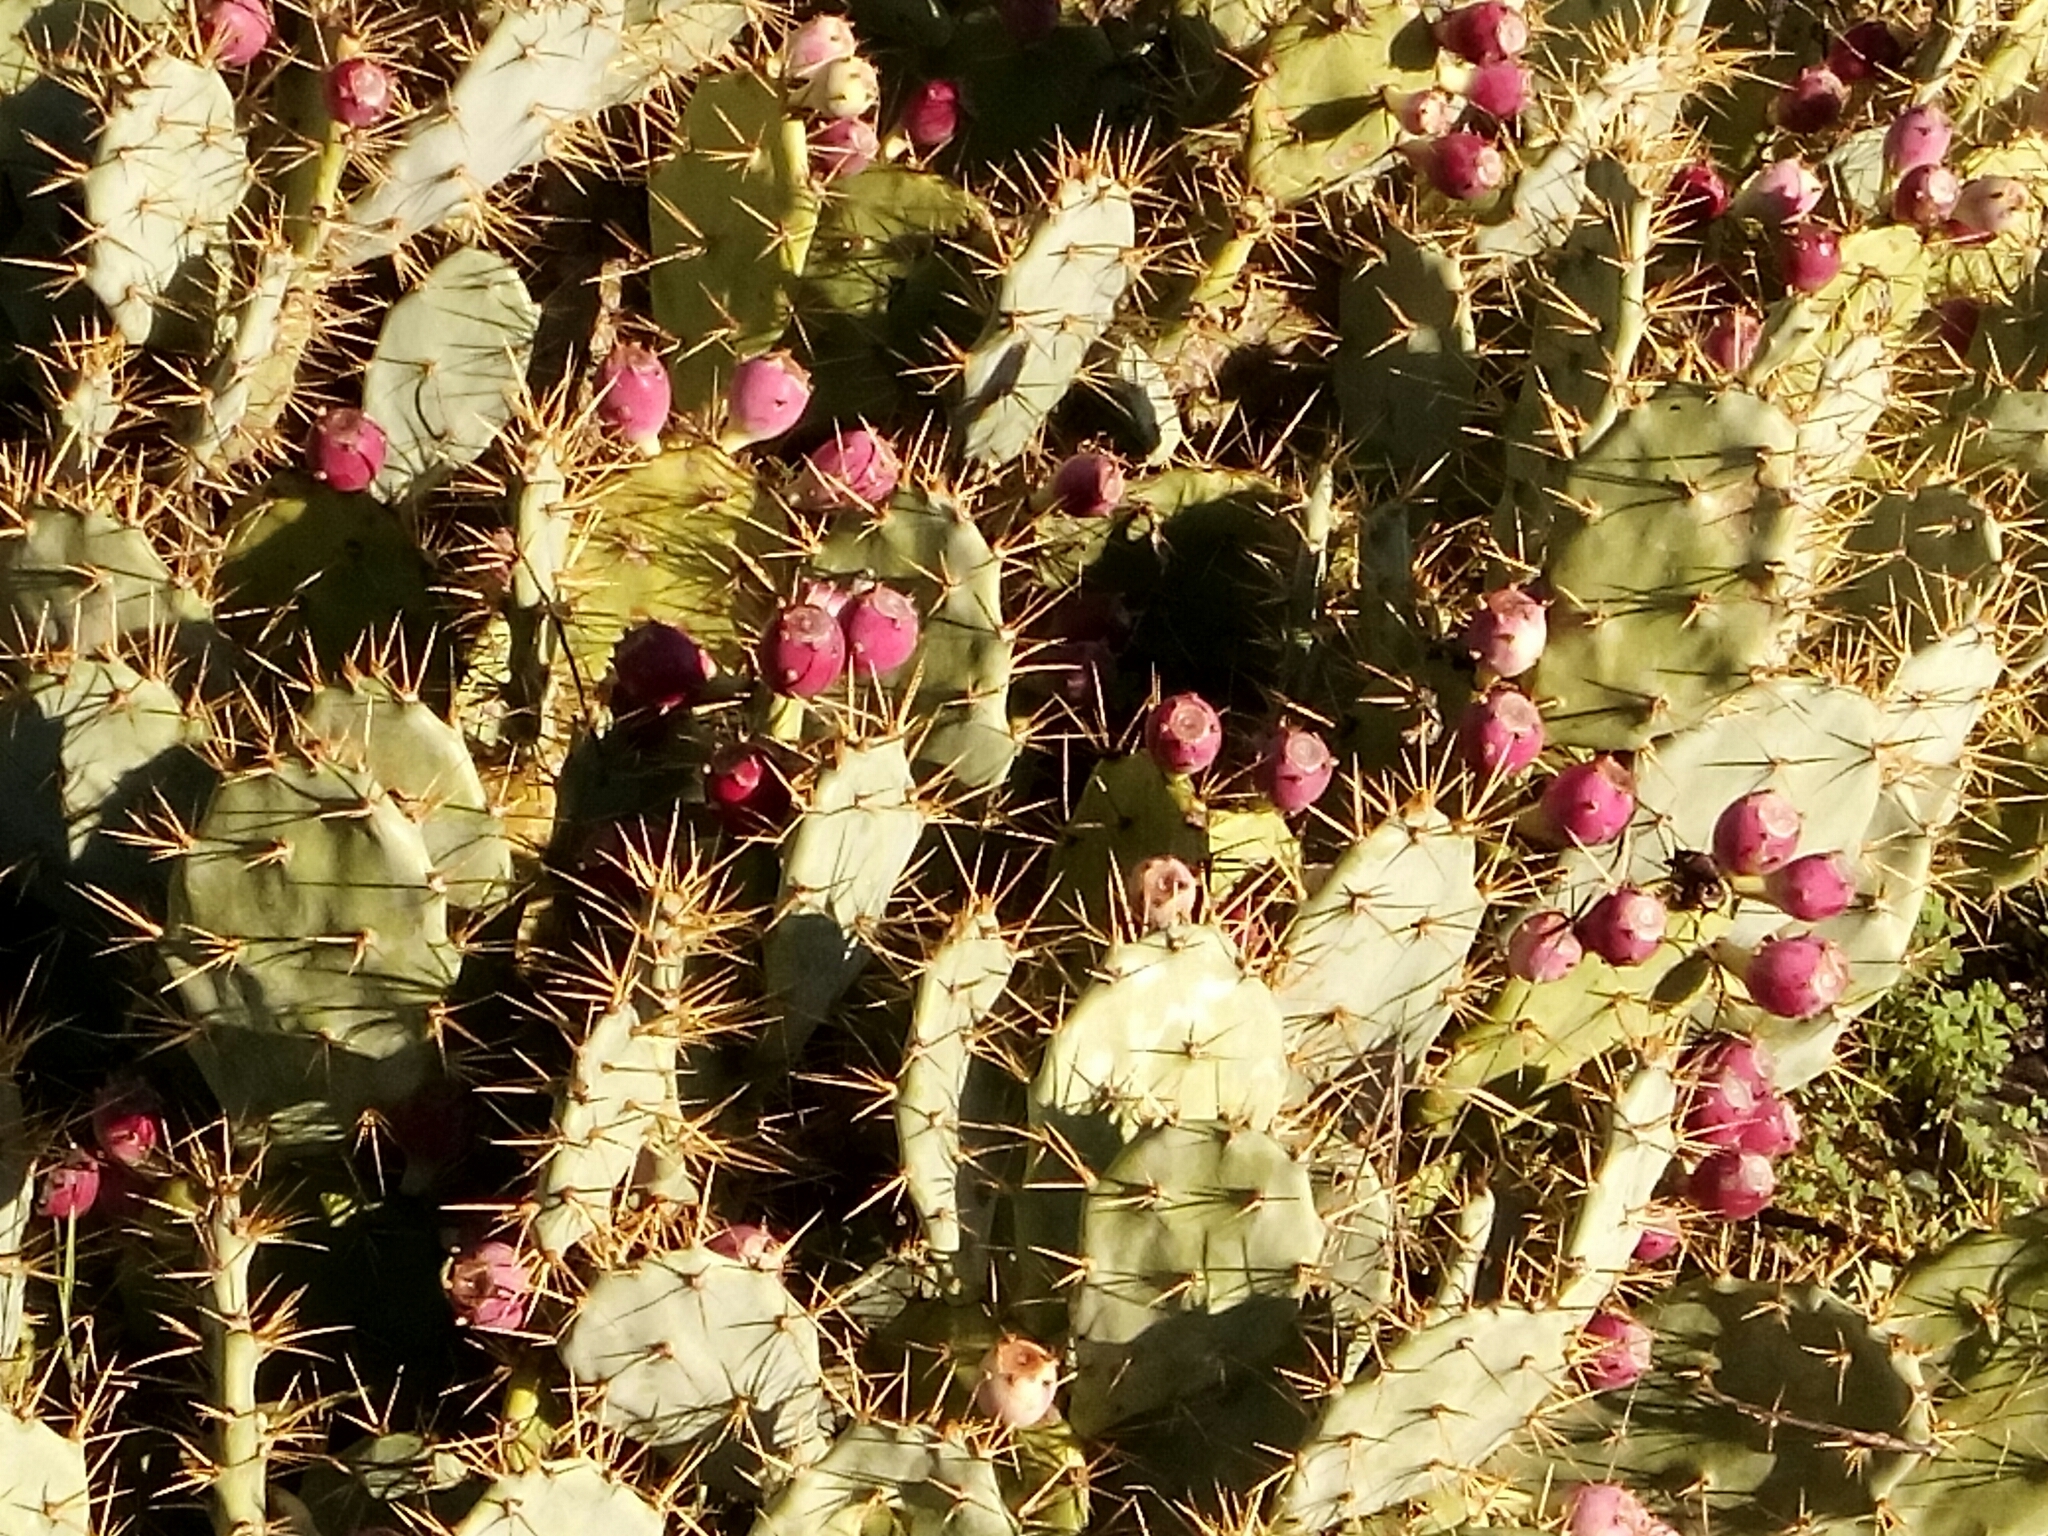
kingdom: Plantae
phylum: Tracheophyta
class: Magnoliopsida
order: Caryophyllales
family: Cactaceae
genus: Opuntia
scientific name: Opuntia stricta
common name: Erect pricklypear
